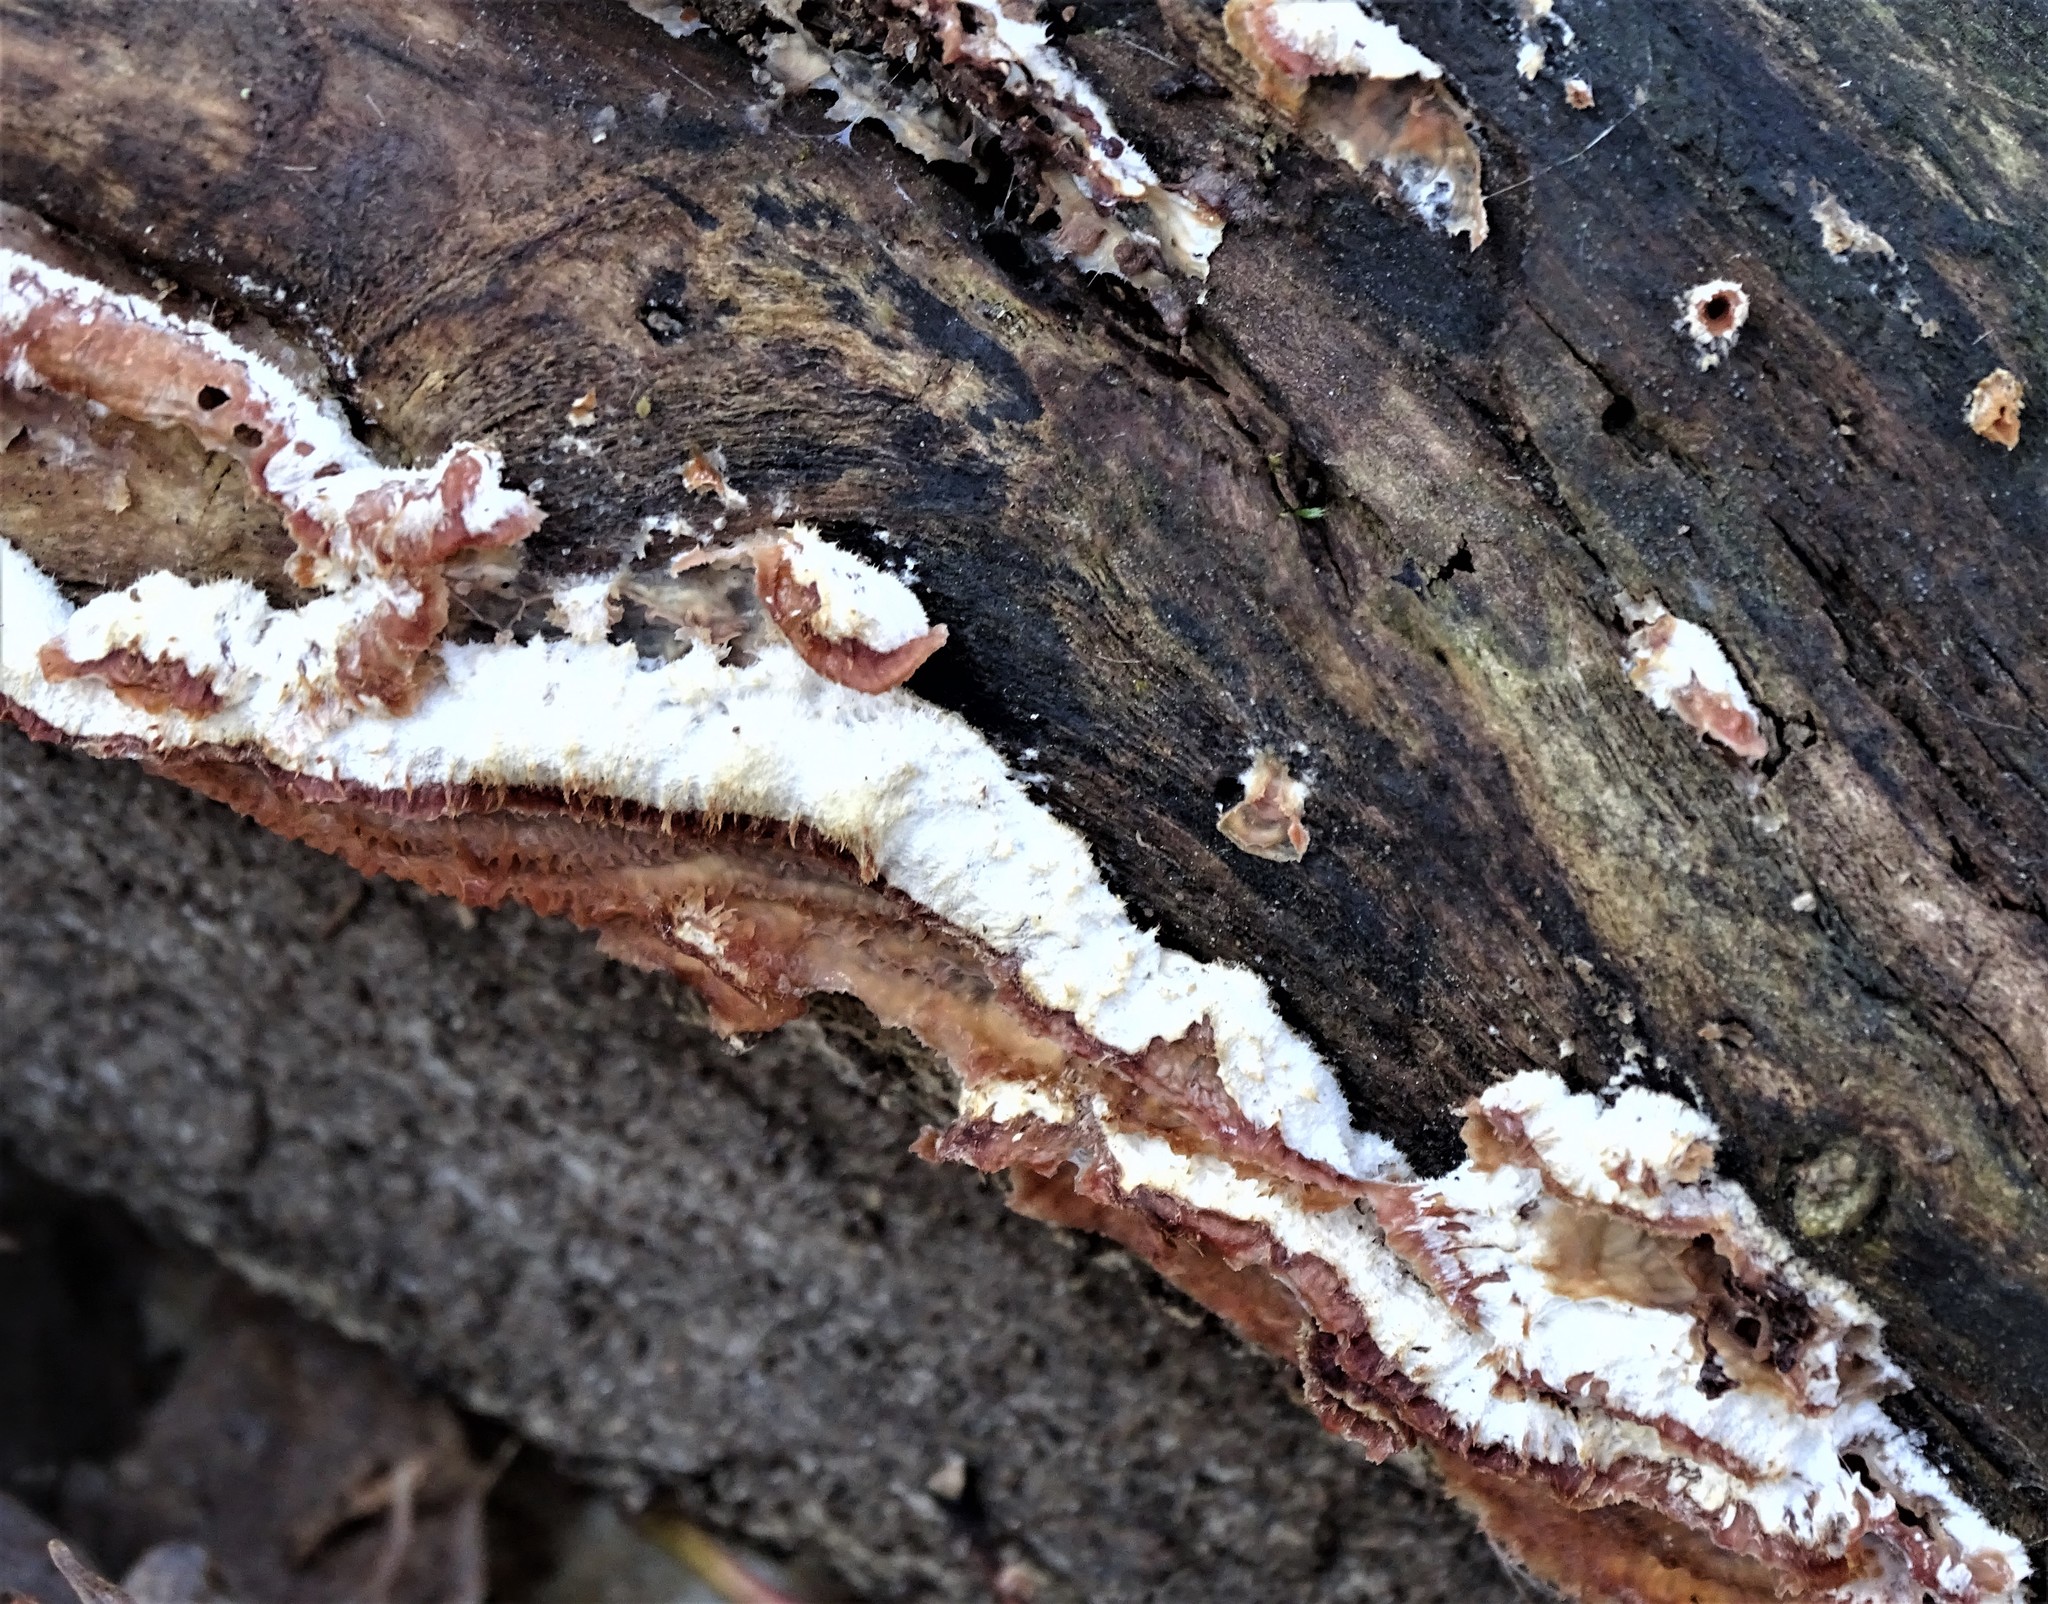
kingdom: Fungi
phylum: Basidiomycota
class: Agaricomycetes
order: Polyporales
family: Meruliaceae
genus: Phlebia
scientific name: Phlebia tremellosa
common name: Jelly rot
